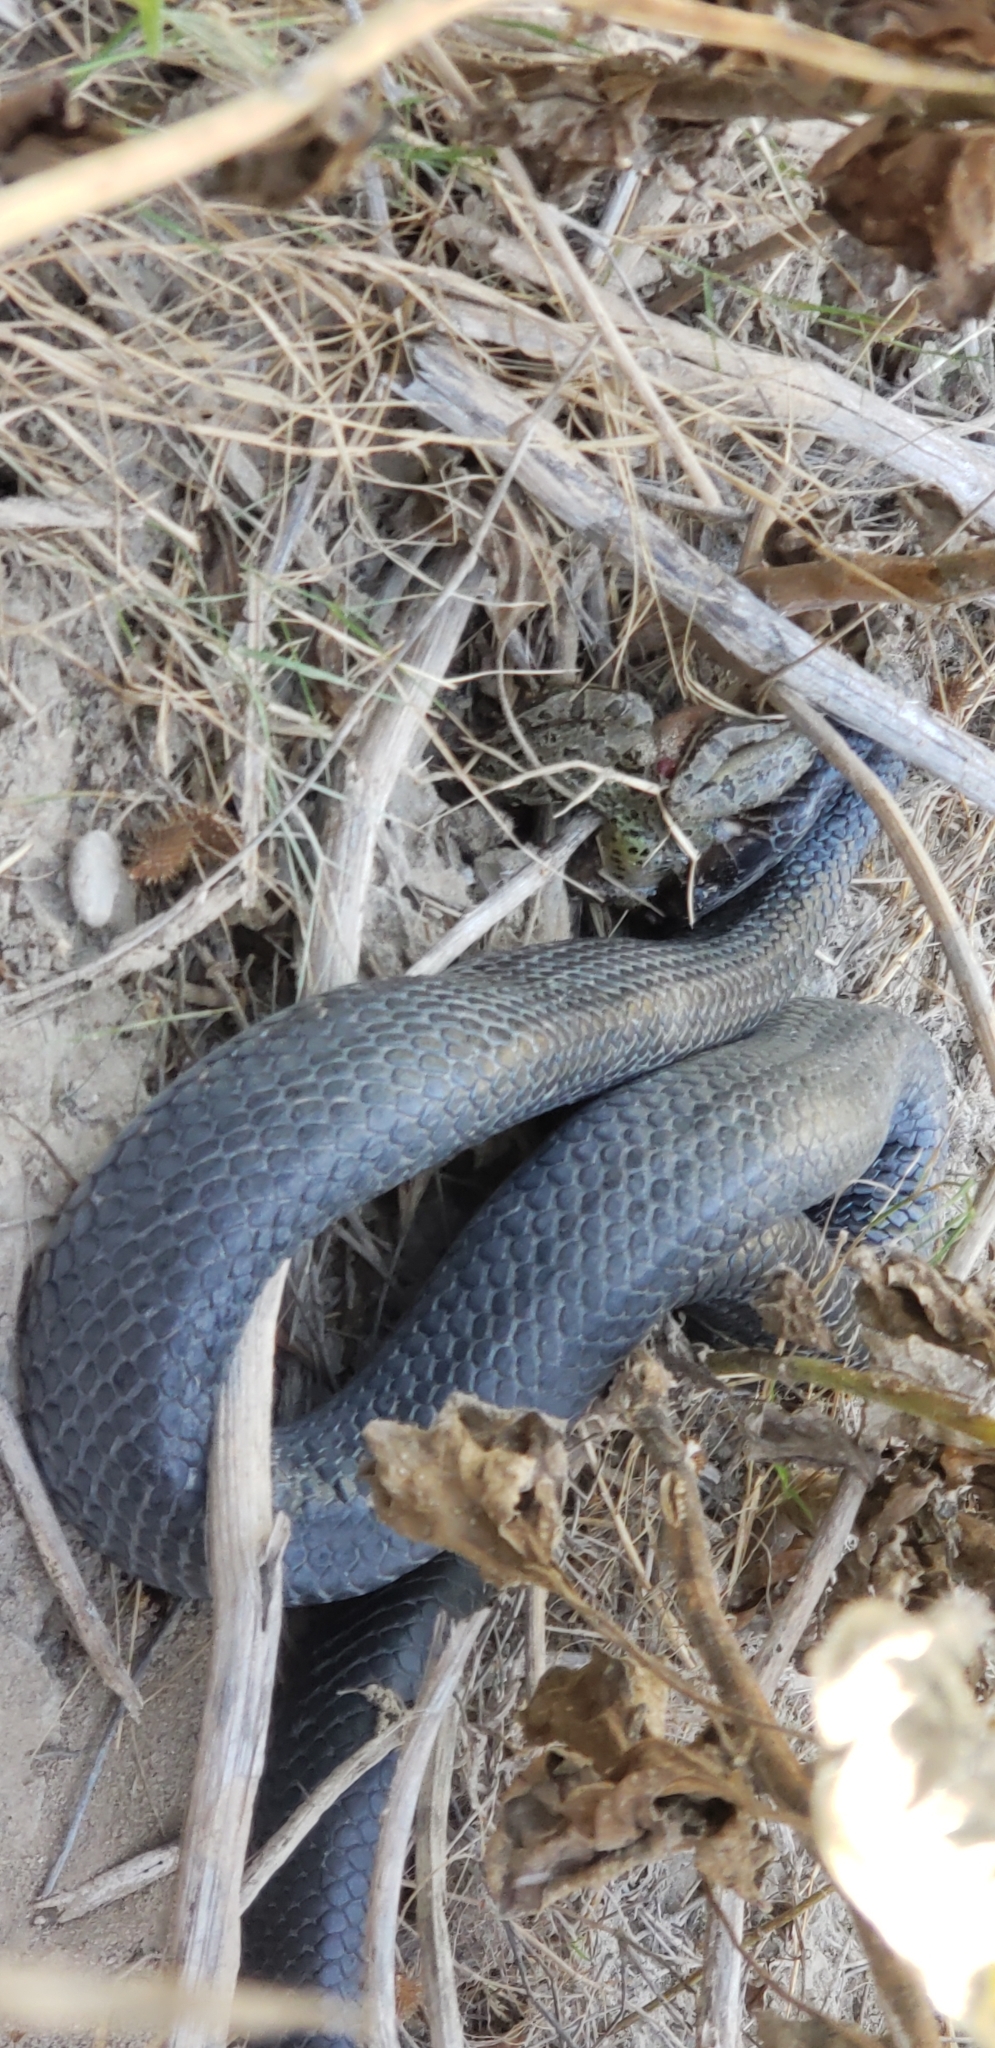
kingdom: Animalia
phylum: Chordata
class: Squamata
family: Colubridae
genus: Drymarchon
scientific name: Drymarchon melanurus
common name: Central american indigo snake
